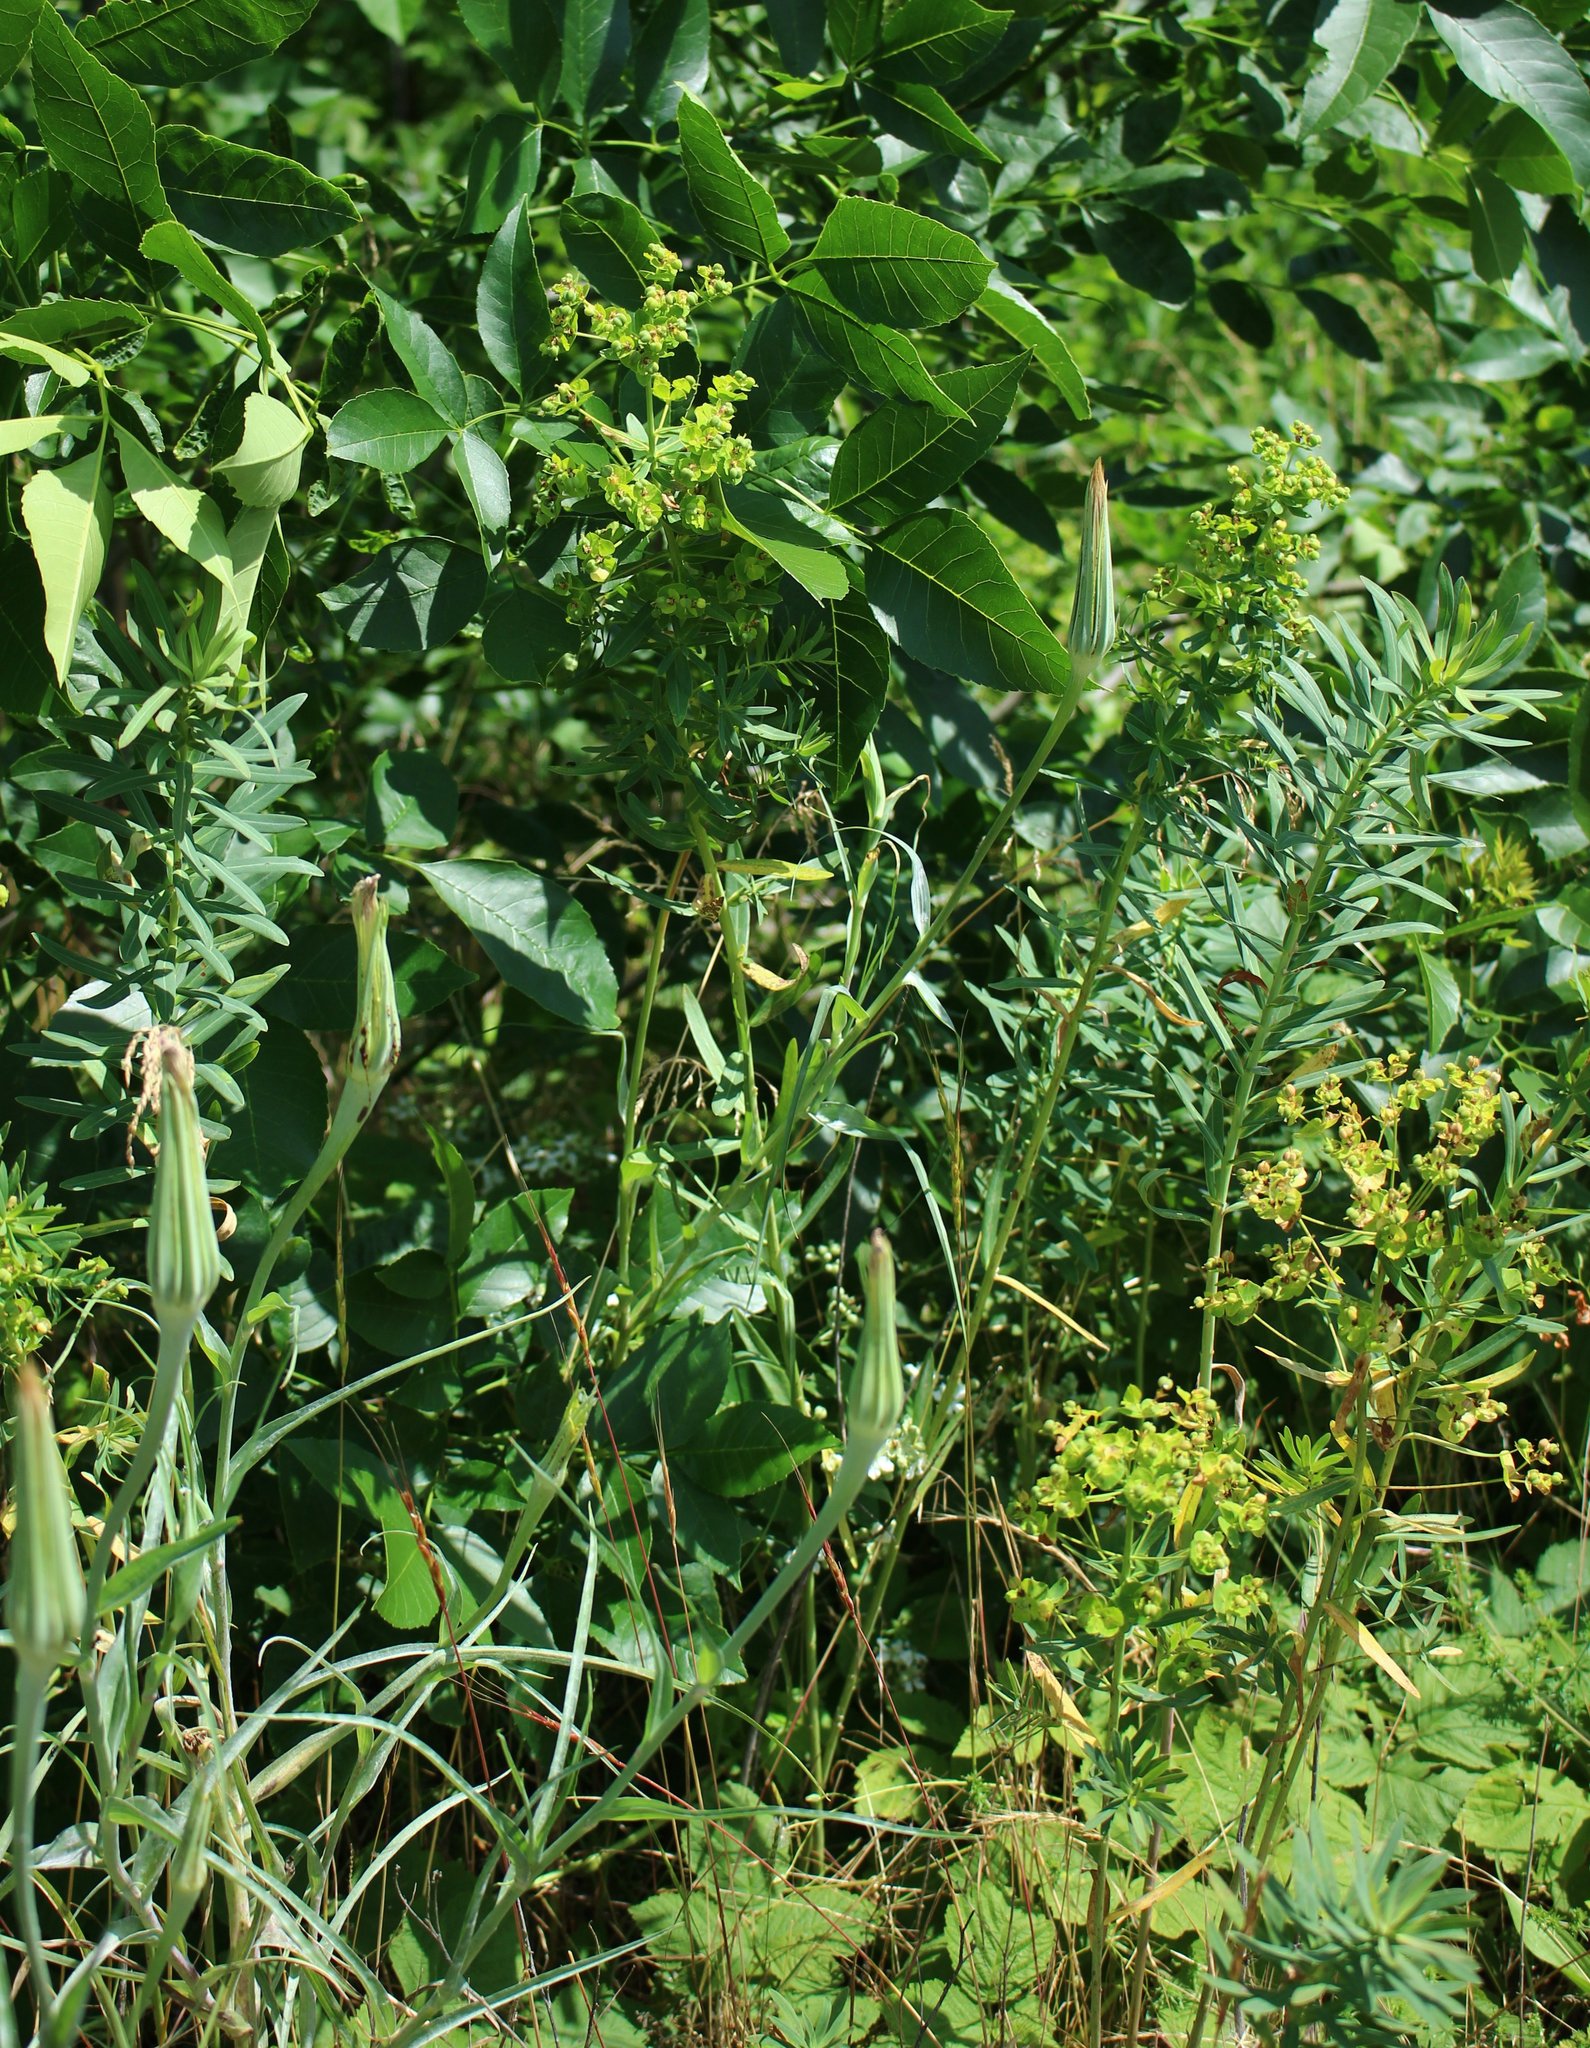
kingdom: Plantae
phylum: Tracheophyta
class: Magnoliopsida
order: Malpighiales
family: Euphorbiaceae
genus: Euphorbia
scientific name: Euphorbia virgata
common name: Leafy spurge
